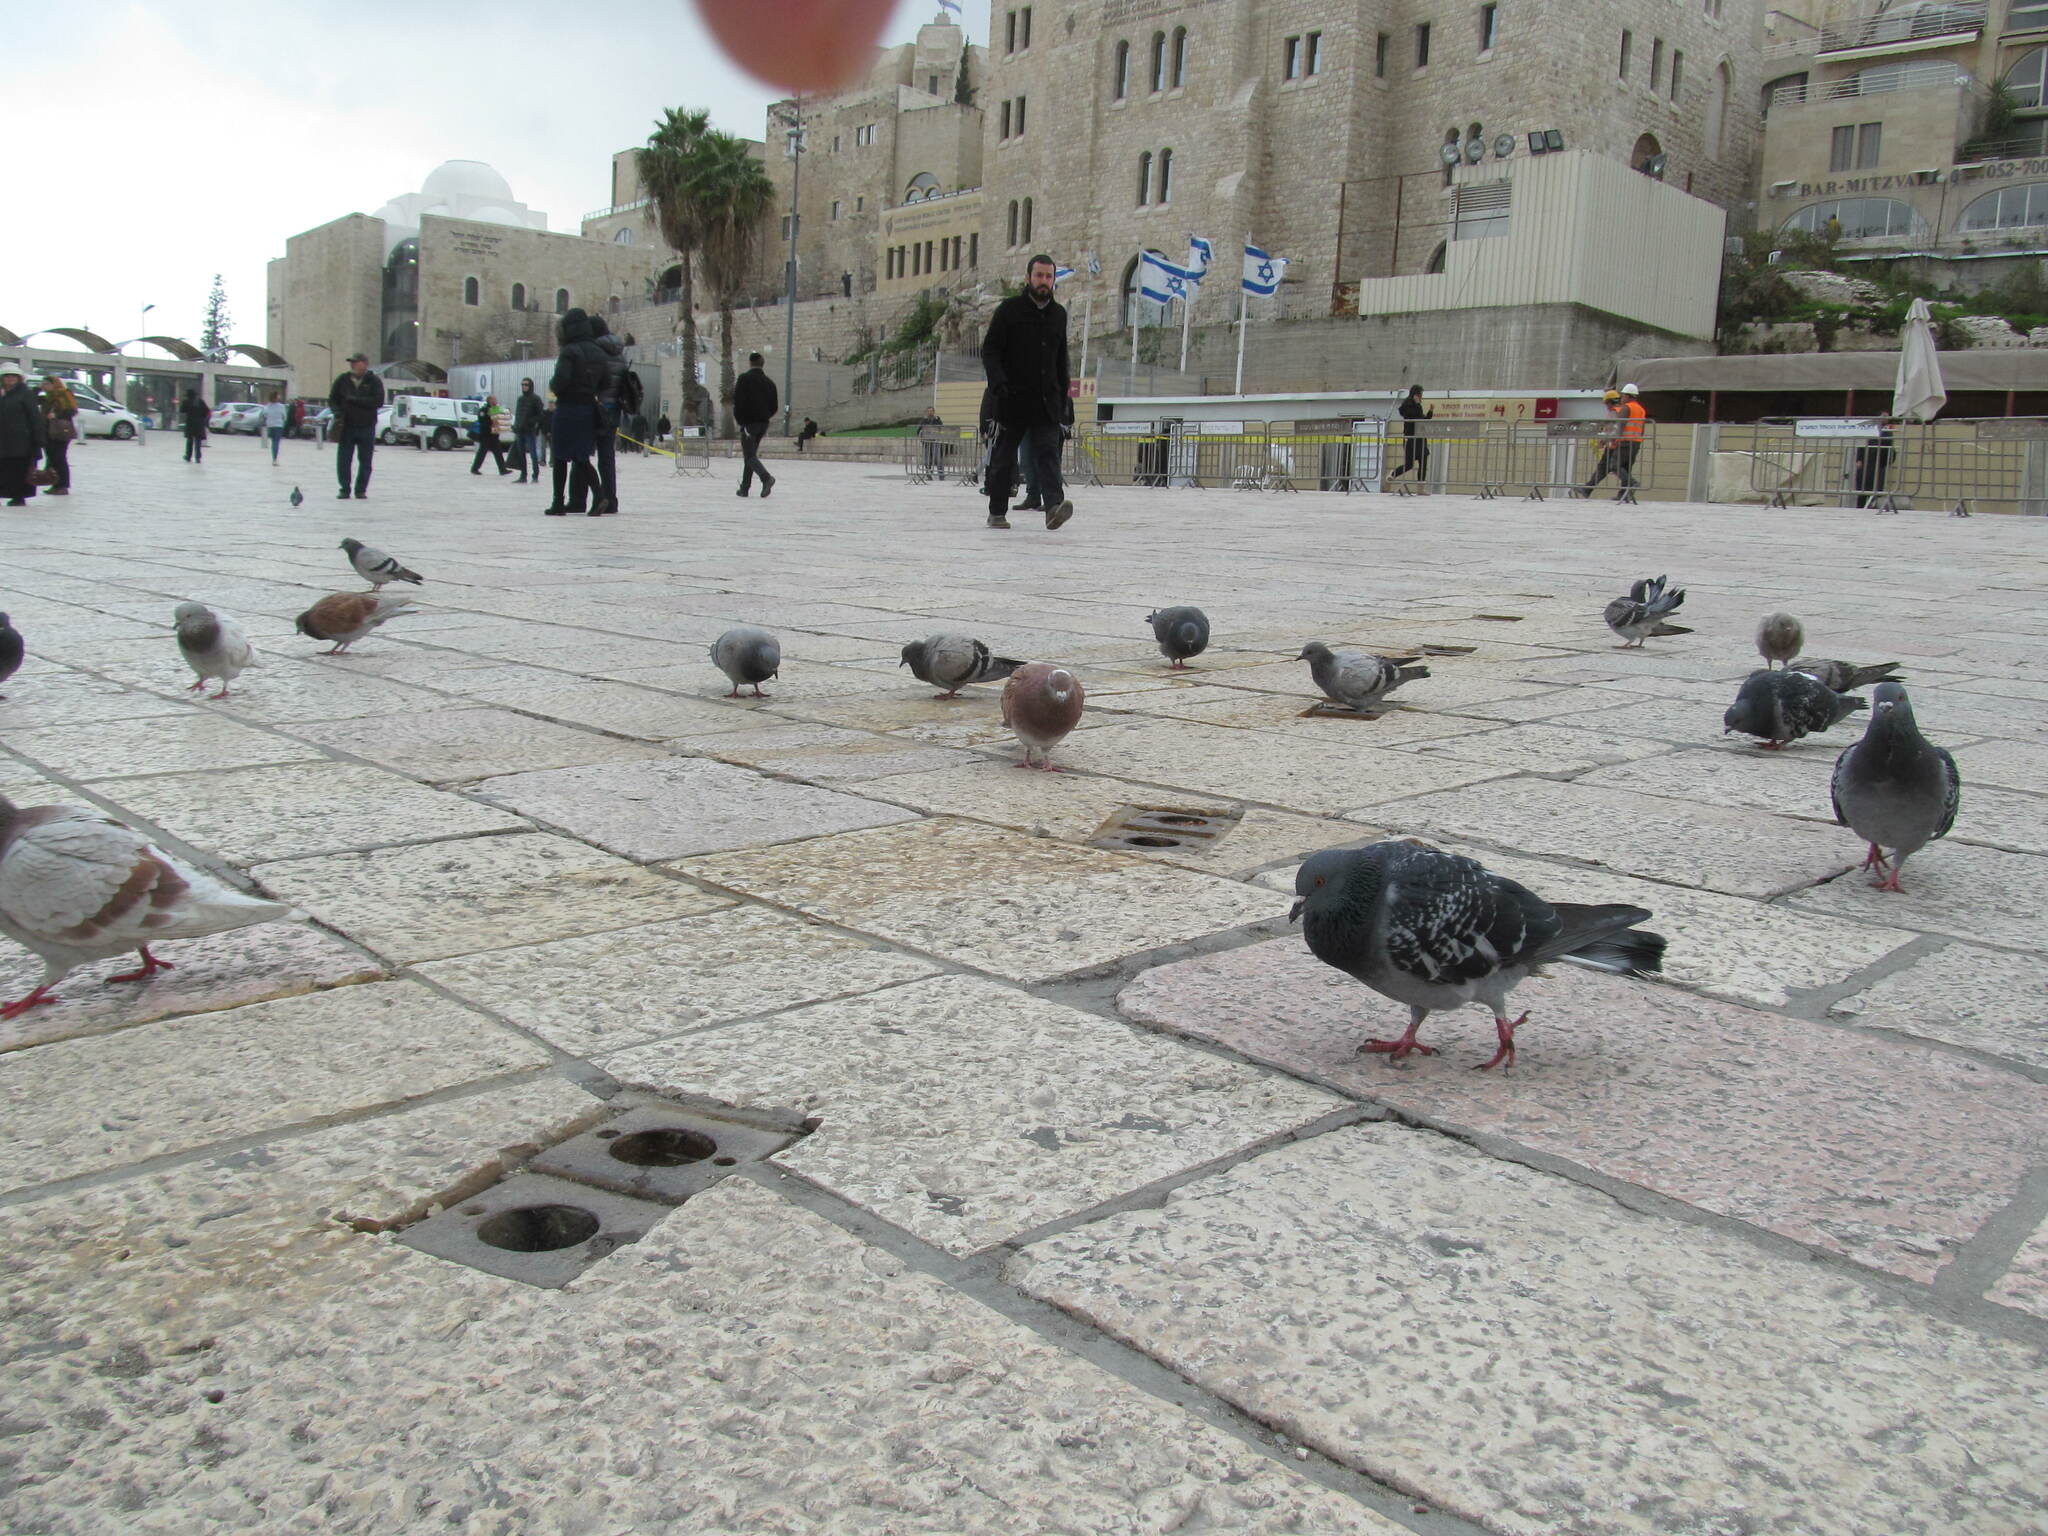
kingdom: Animalia
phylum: Chordata
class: Aves
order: Columbiformes
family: Columbidae
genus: Columba
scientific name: Columba livia
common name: Rock pigeon
